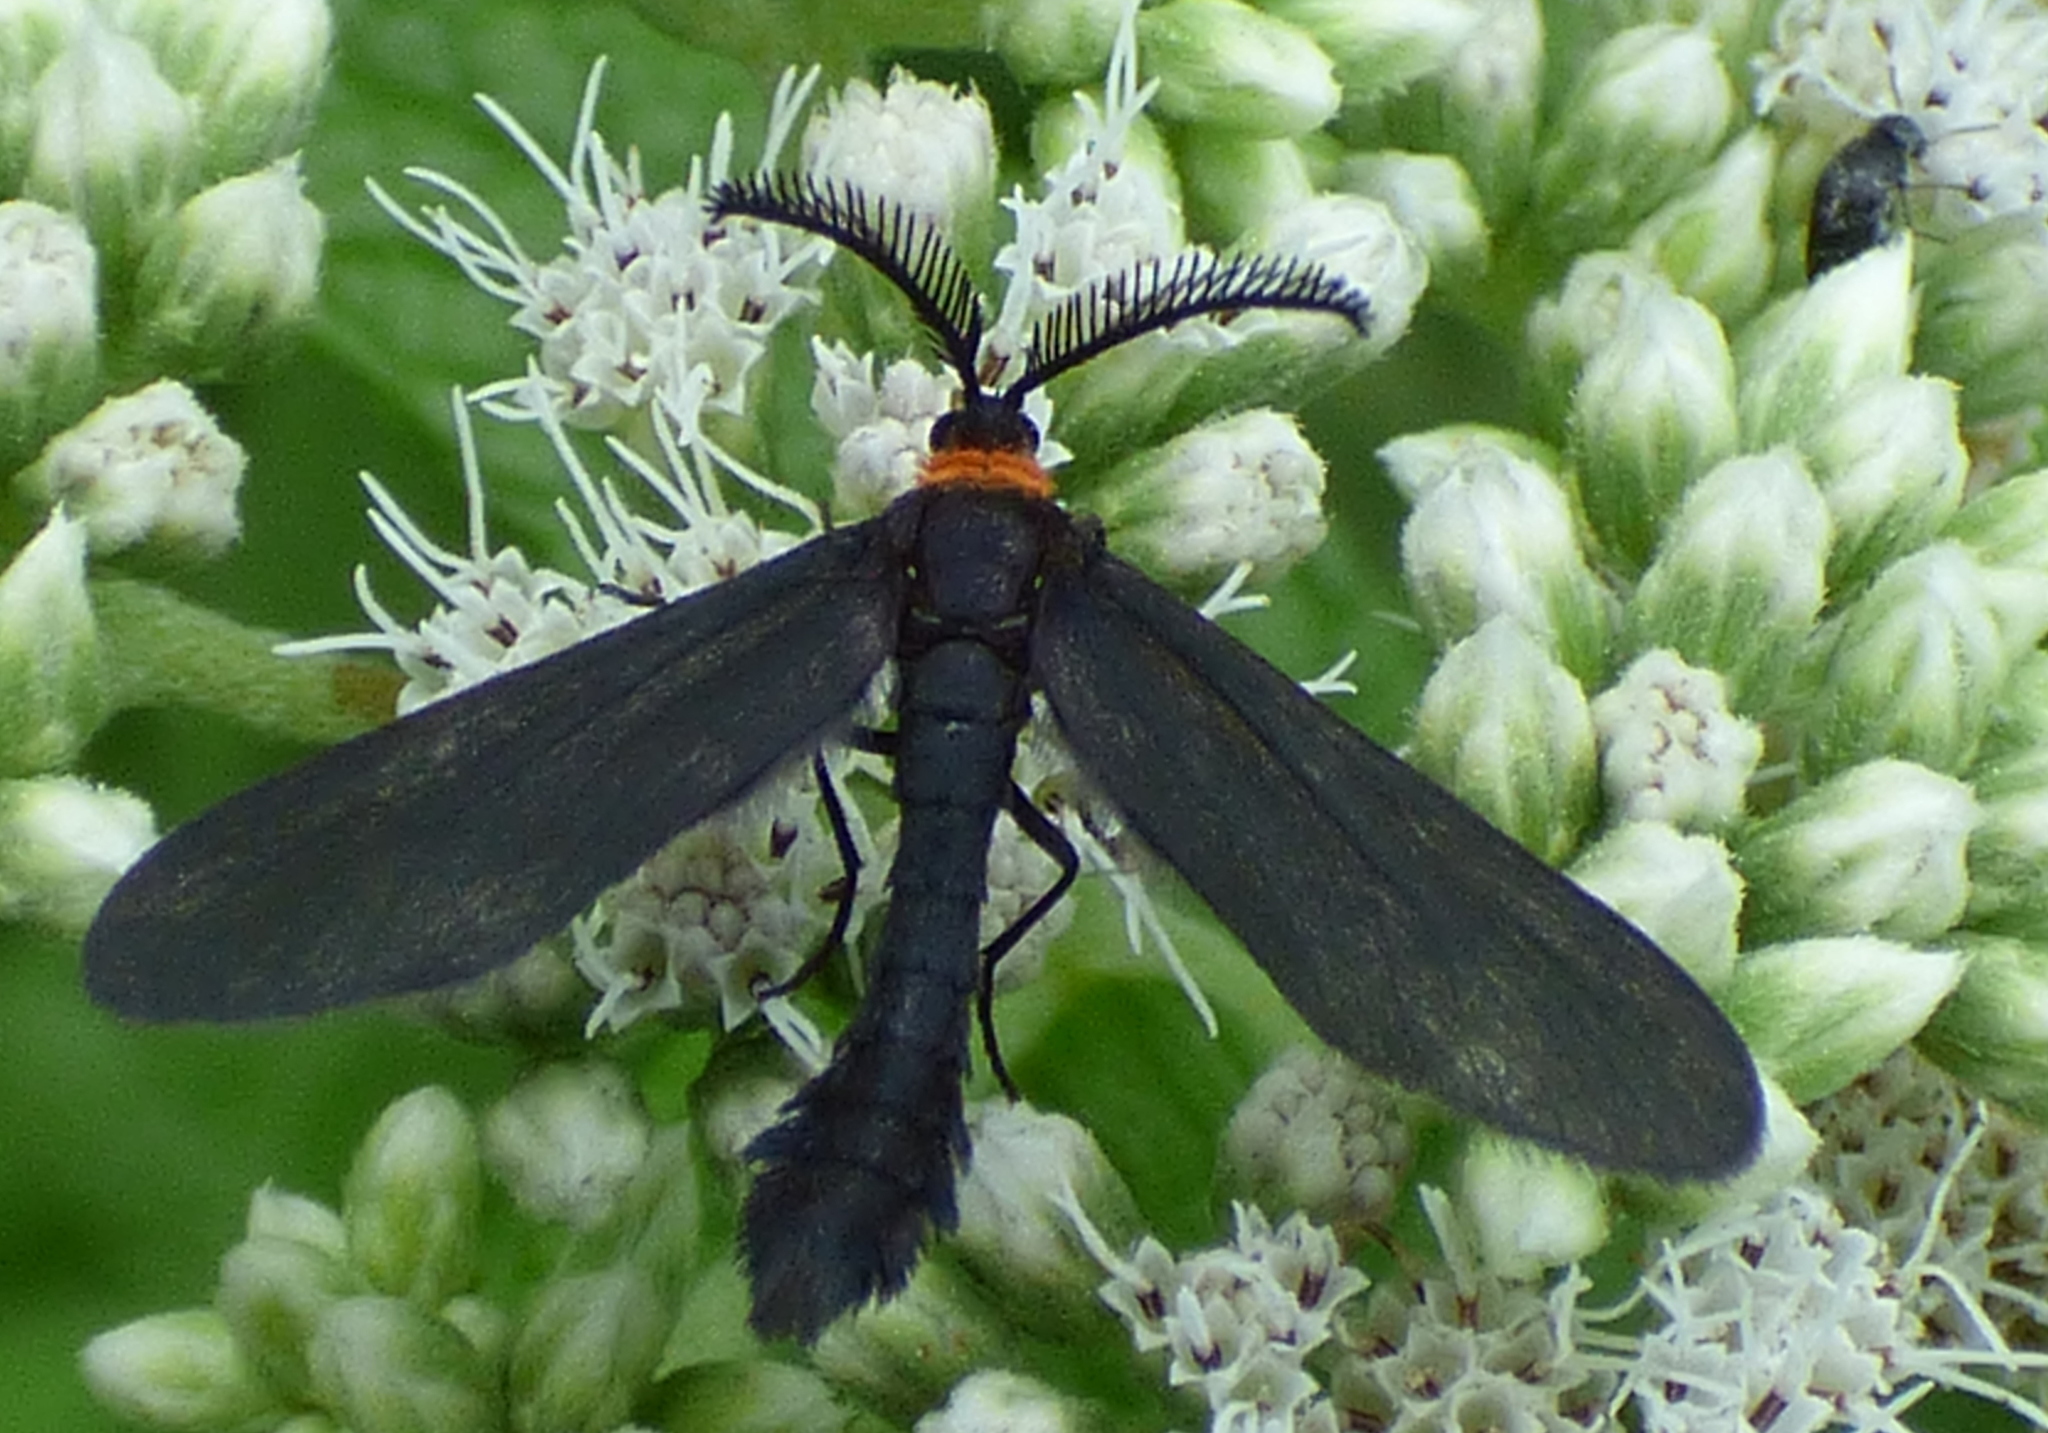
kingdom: Animalia
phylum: Arthropoda
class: Insecta
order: Lepidoptera
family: Zygaenidae
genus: Harrisina
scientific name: Harrisina americana
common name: Grapeleaf skeletonizer moth
